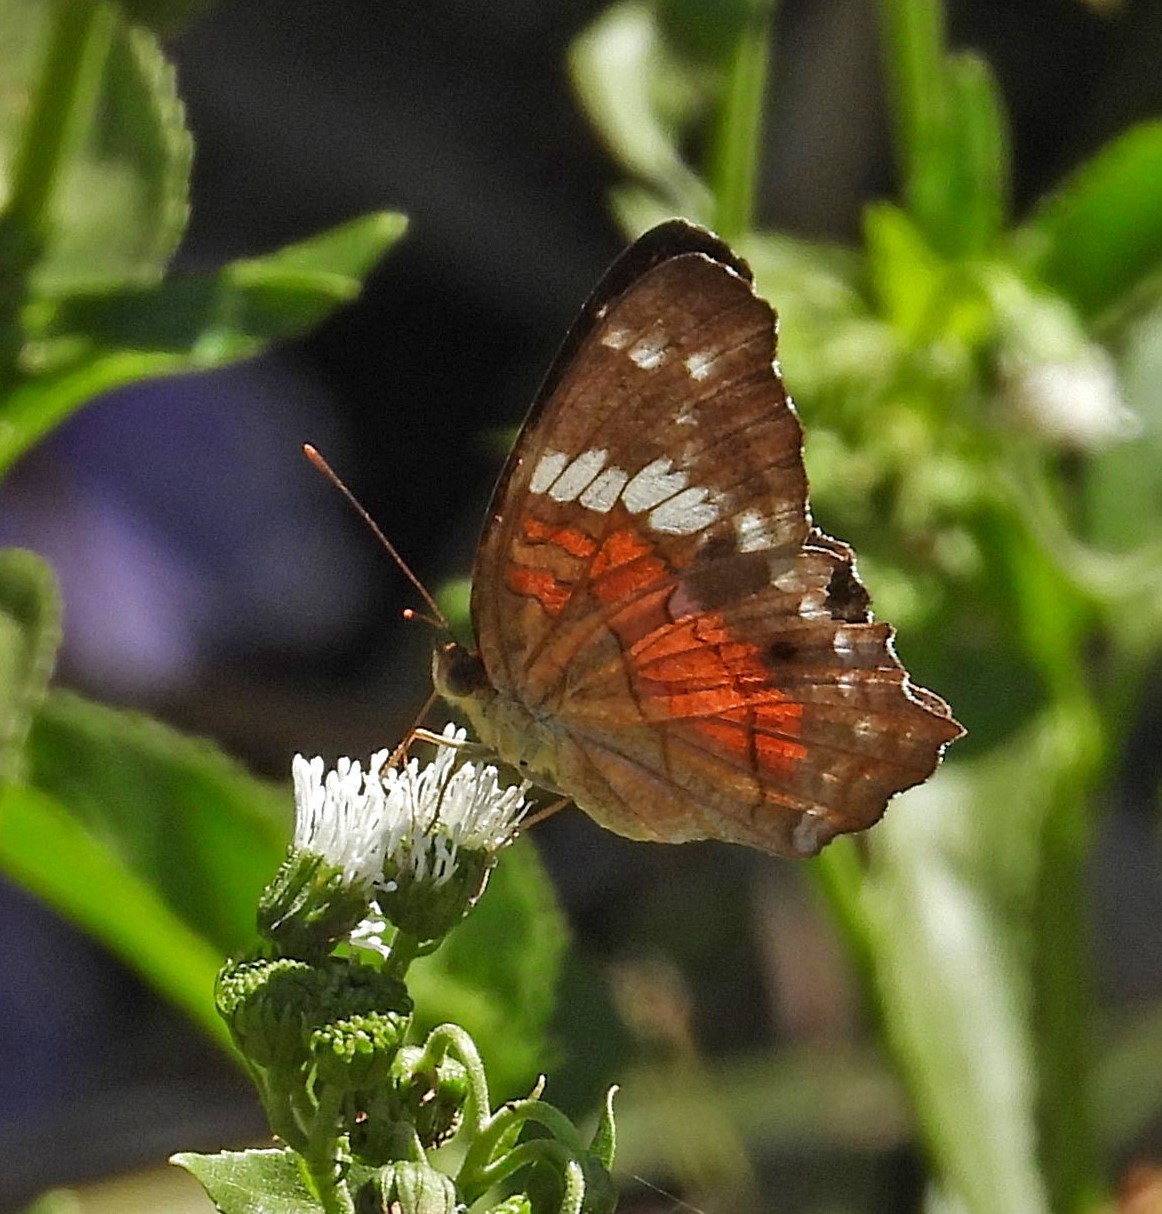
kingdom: Animalia
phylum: Arthropoda
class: Insecta
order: Lepidoptera
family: Nymphalidae
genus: Anartia
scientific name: Anartia amathea
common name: Red peacock
